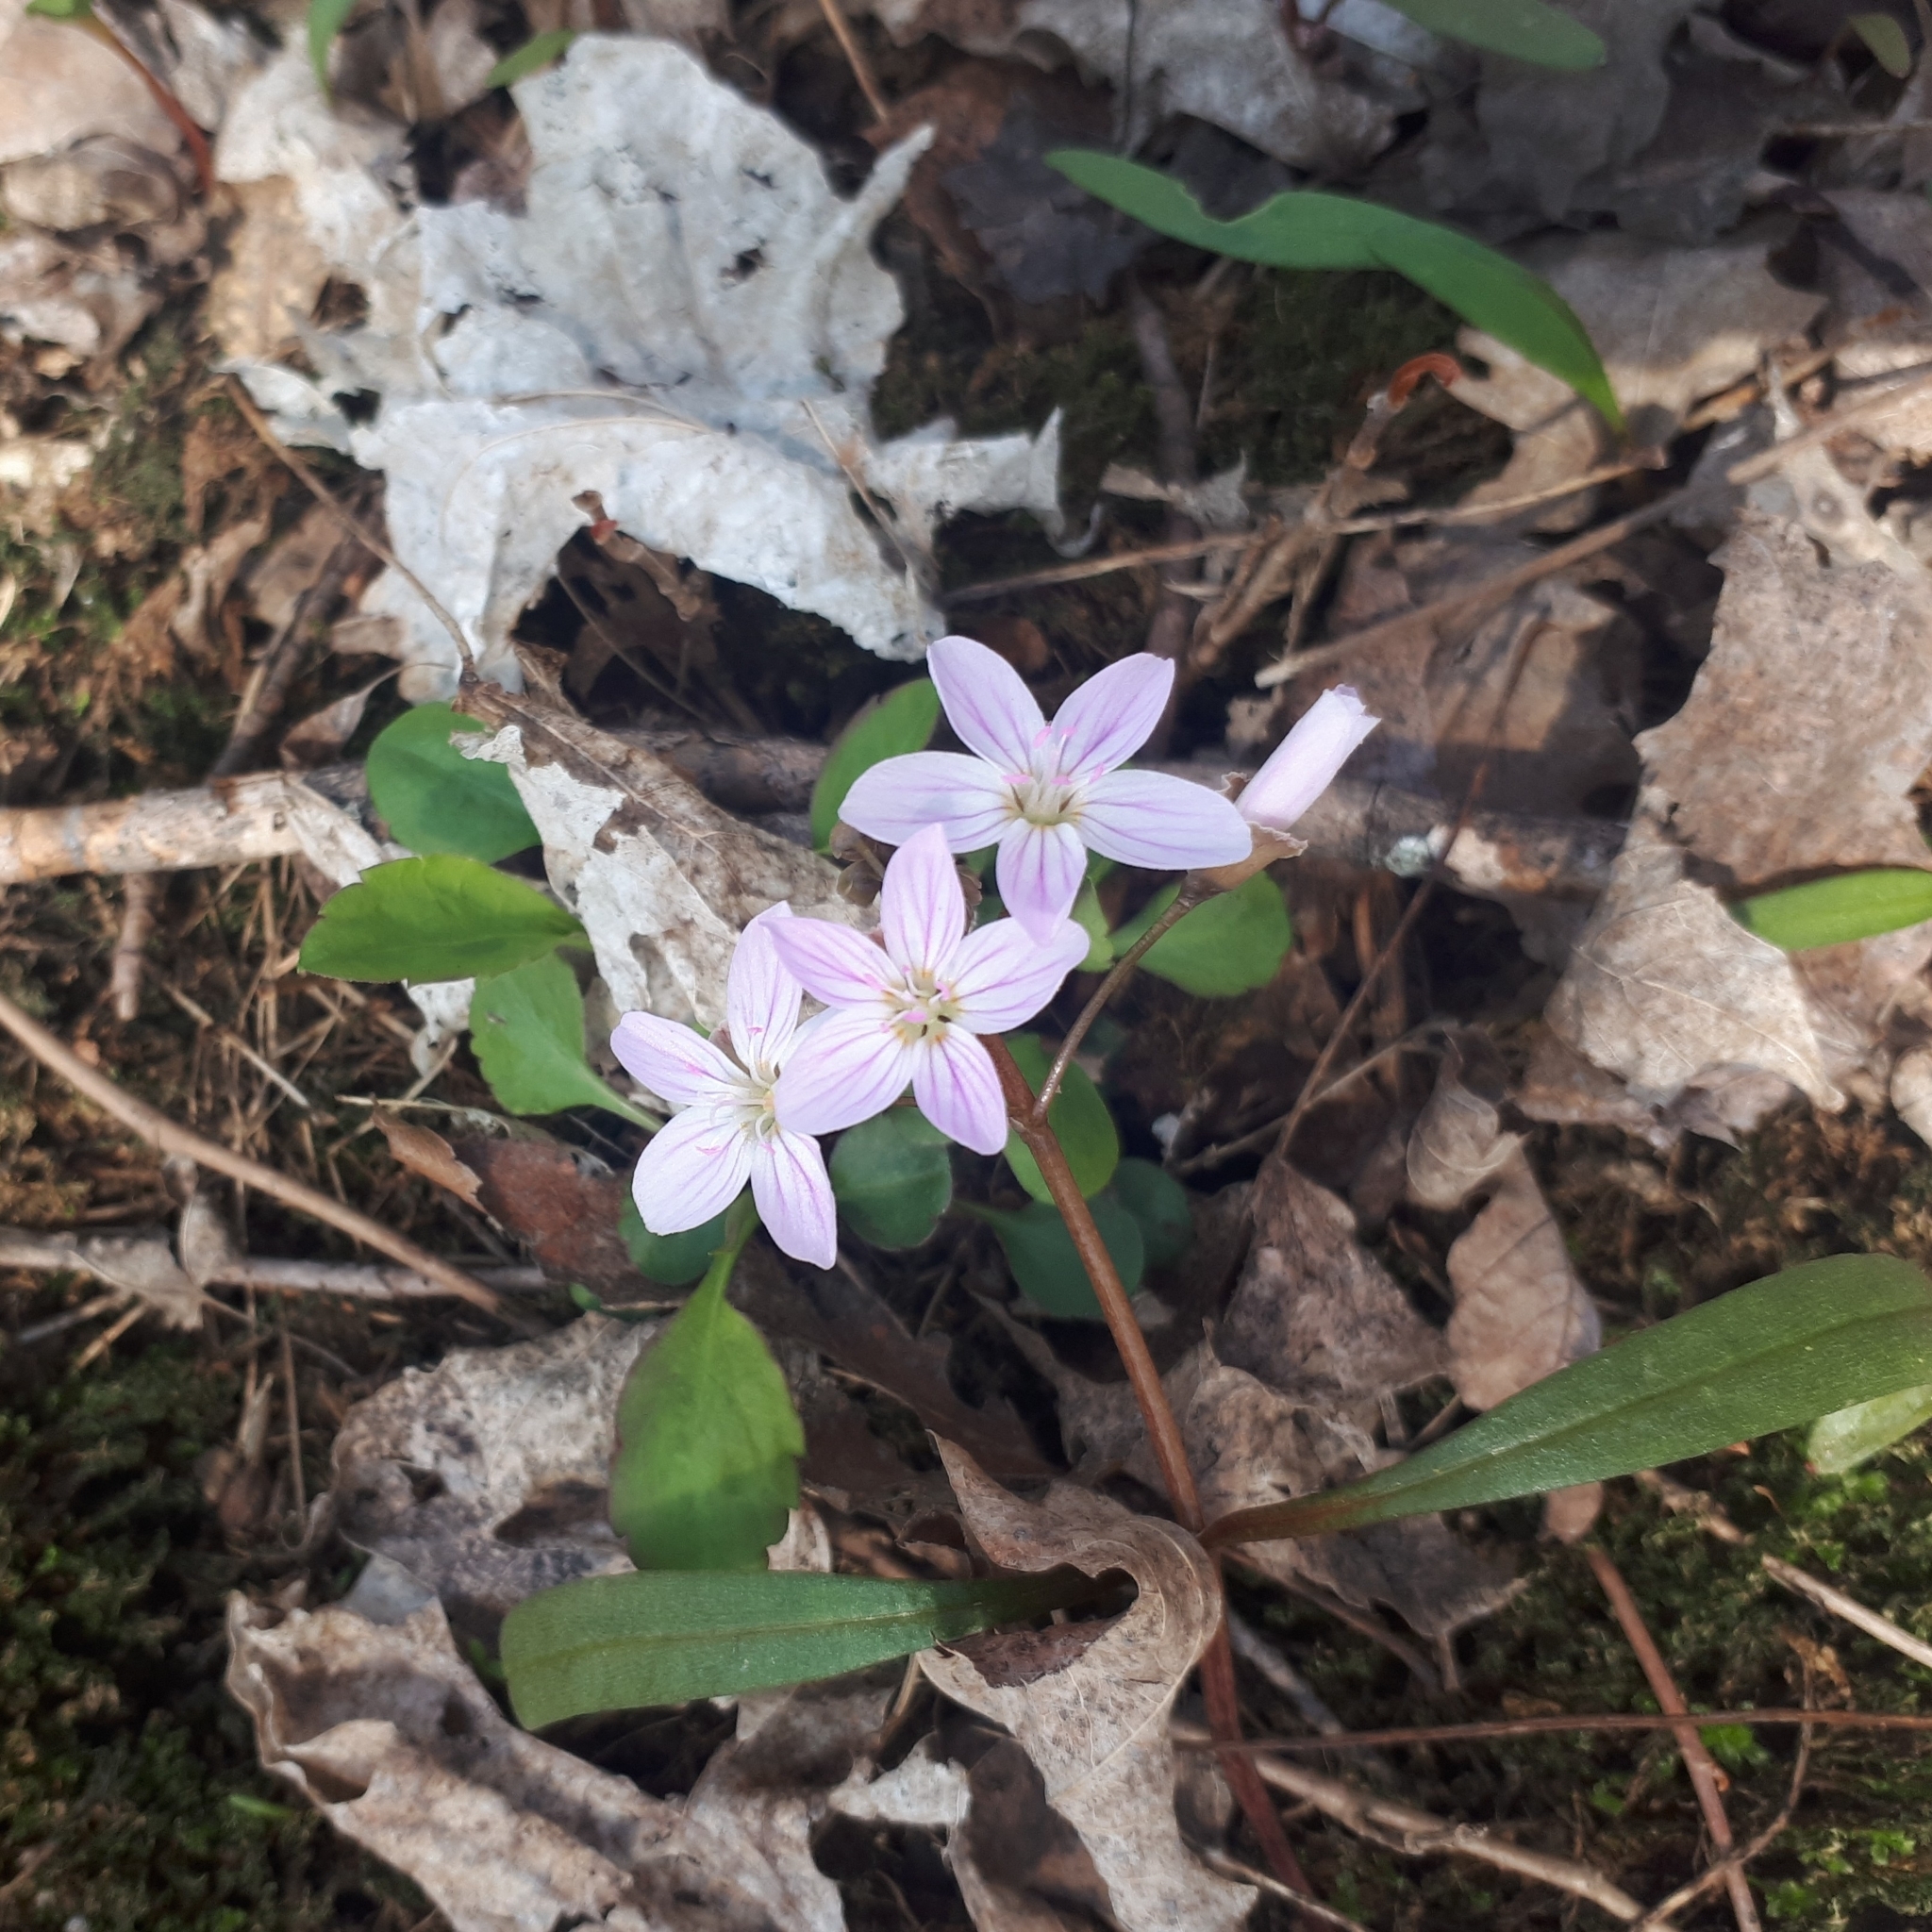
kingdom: Plantae
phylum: Tracheophyta
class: Magnoliopsida
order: Caryophyllales
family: Montiaceae
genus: Claytonia
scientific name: Claytonia virginica
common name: Virginia springbeauty
